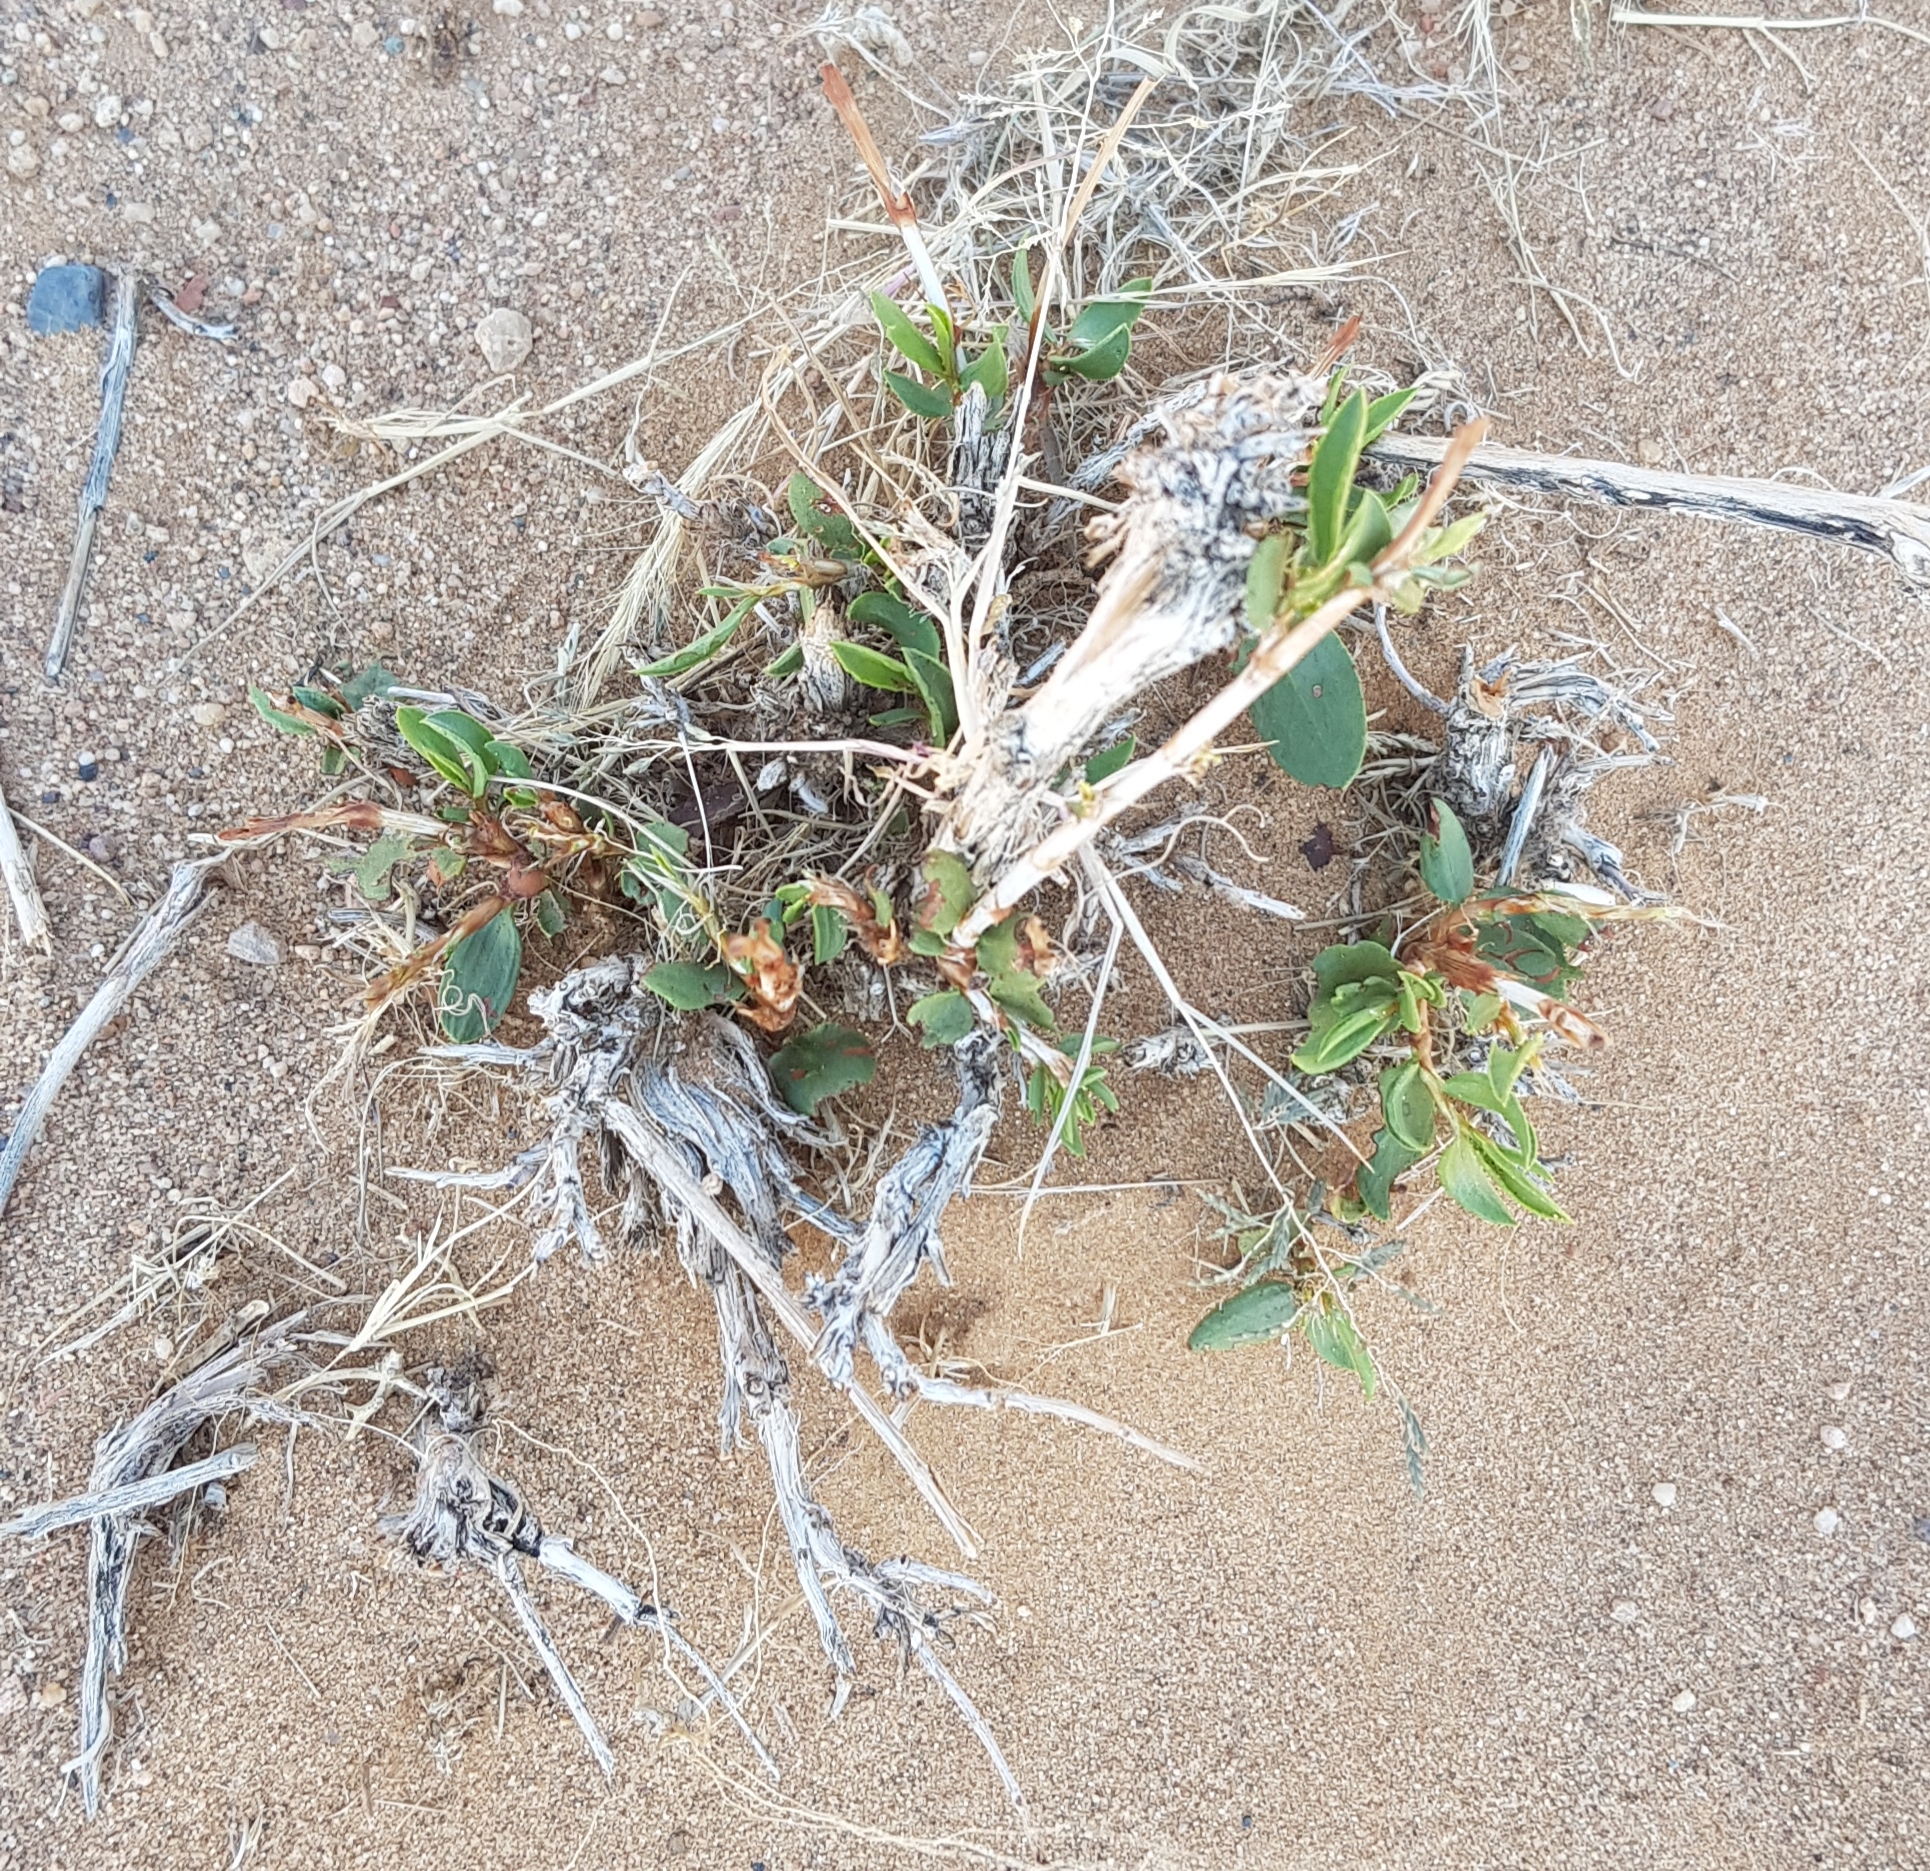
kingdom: Plantae
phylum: Tracheophyta
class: Magnoliopsida
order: Caryophyllales
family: Polygonaceae
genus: Atraphaxis
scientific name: Atraphaxis frutescens
